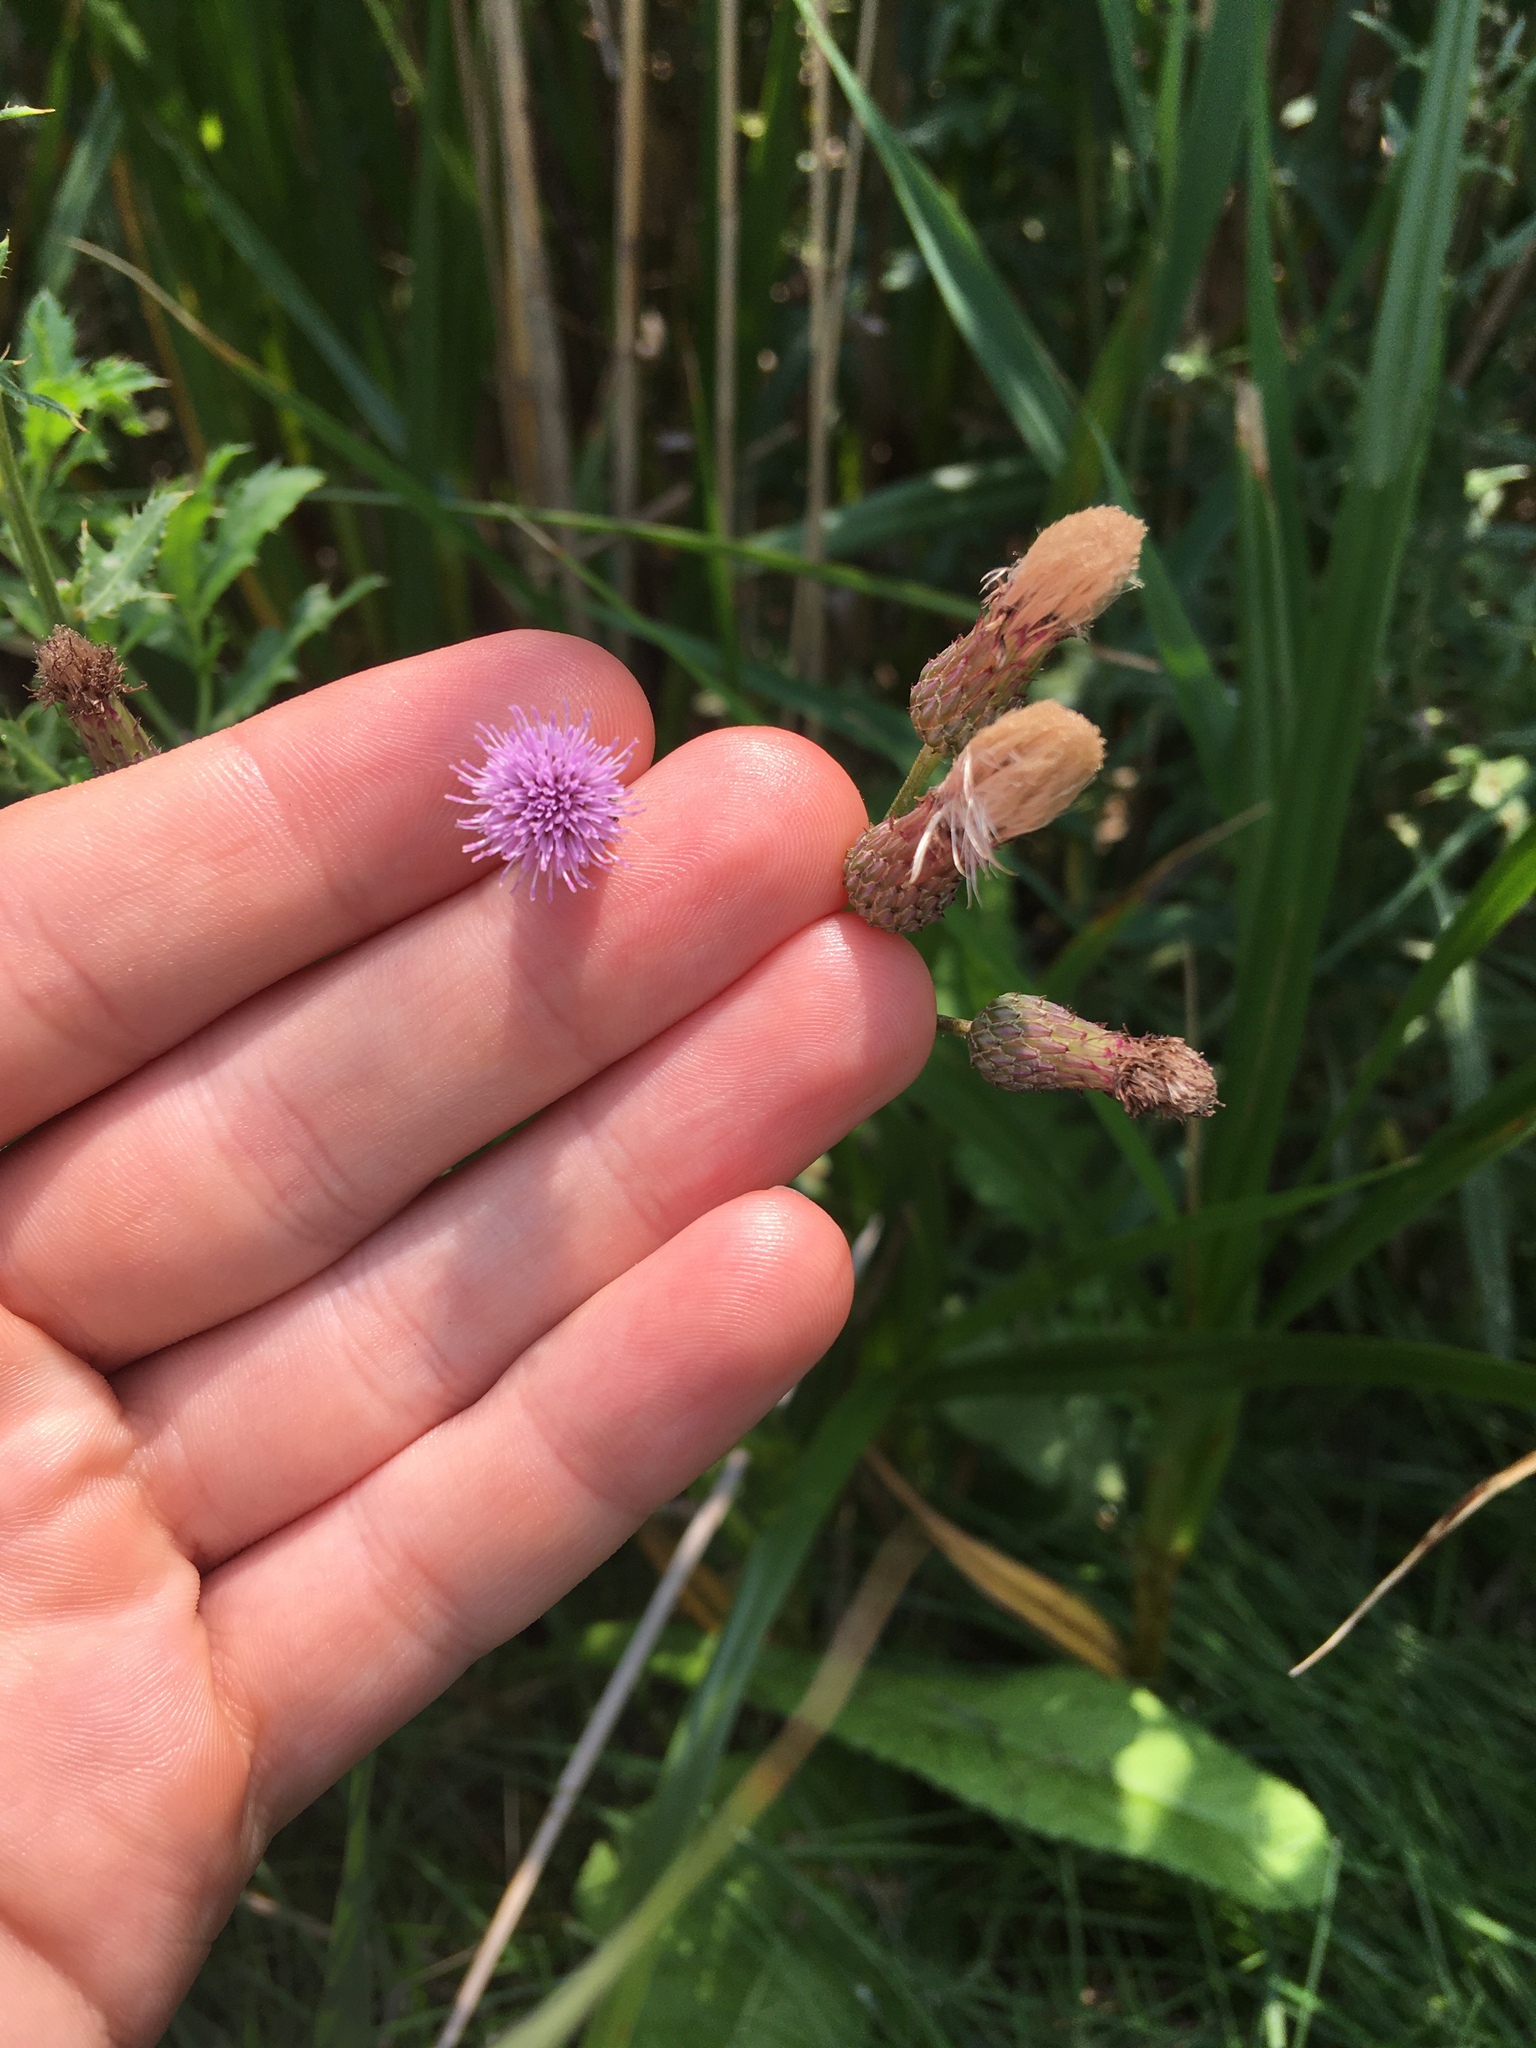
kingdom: Plantae
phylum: Tracheophyta
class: Magnoliopsida
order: Asterales
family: Asteraceae
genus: Cirsium
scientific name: Cirsium arvense
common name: Creeping thistle
